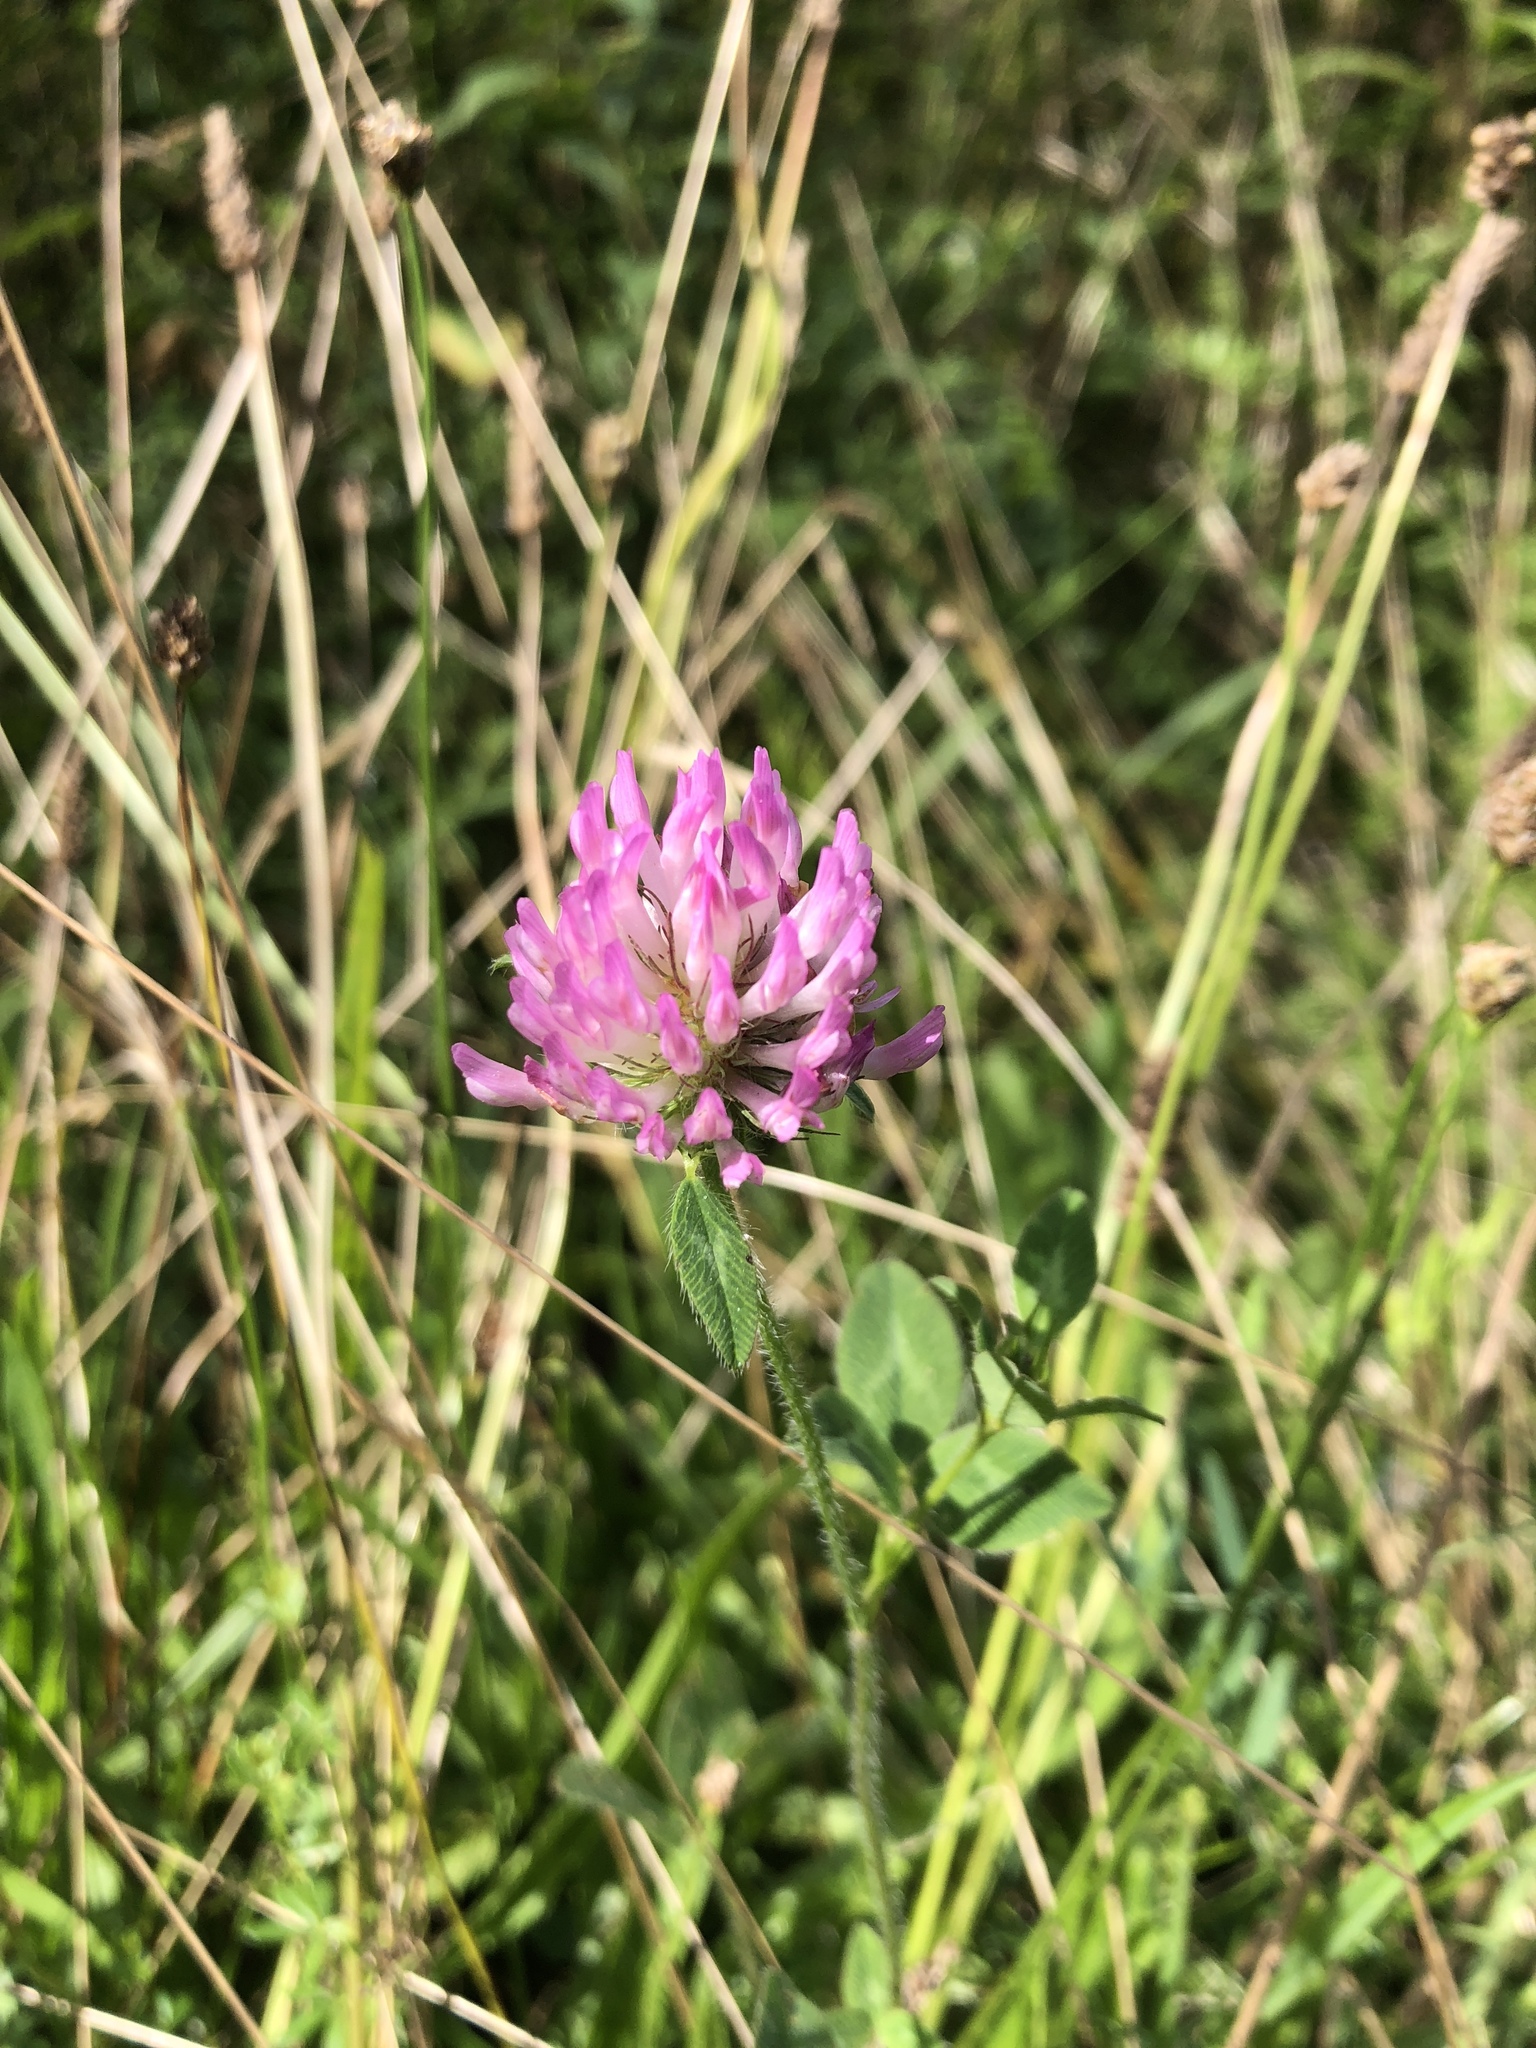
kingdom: Plantae
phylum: Tracheophyta
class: Magnoliopsida
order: Fabales
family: Fabaceae
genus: Trifolium
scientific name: Trifolium pratense
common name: Red clover
